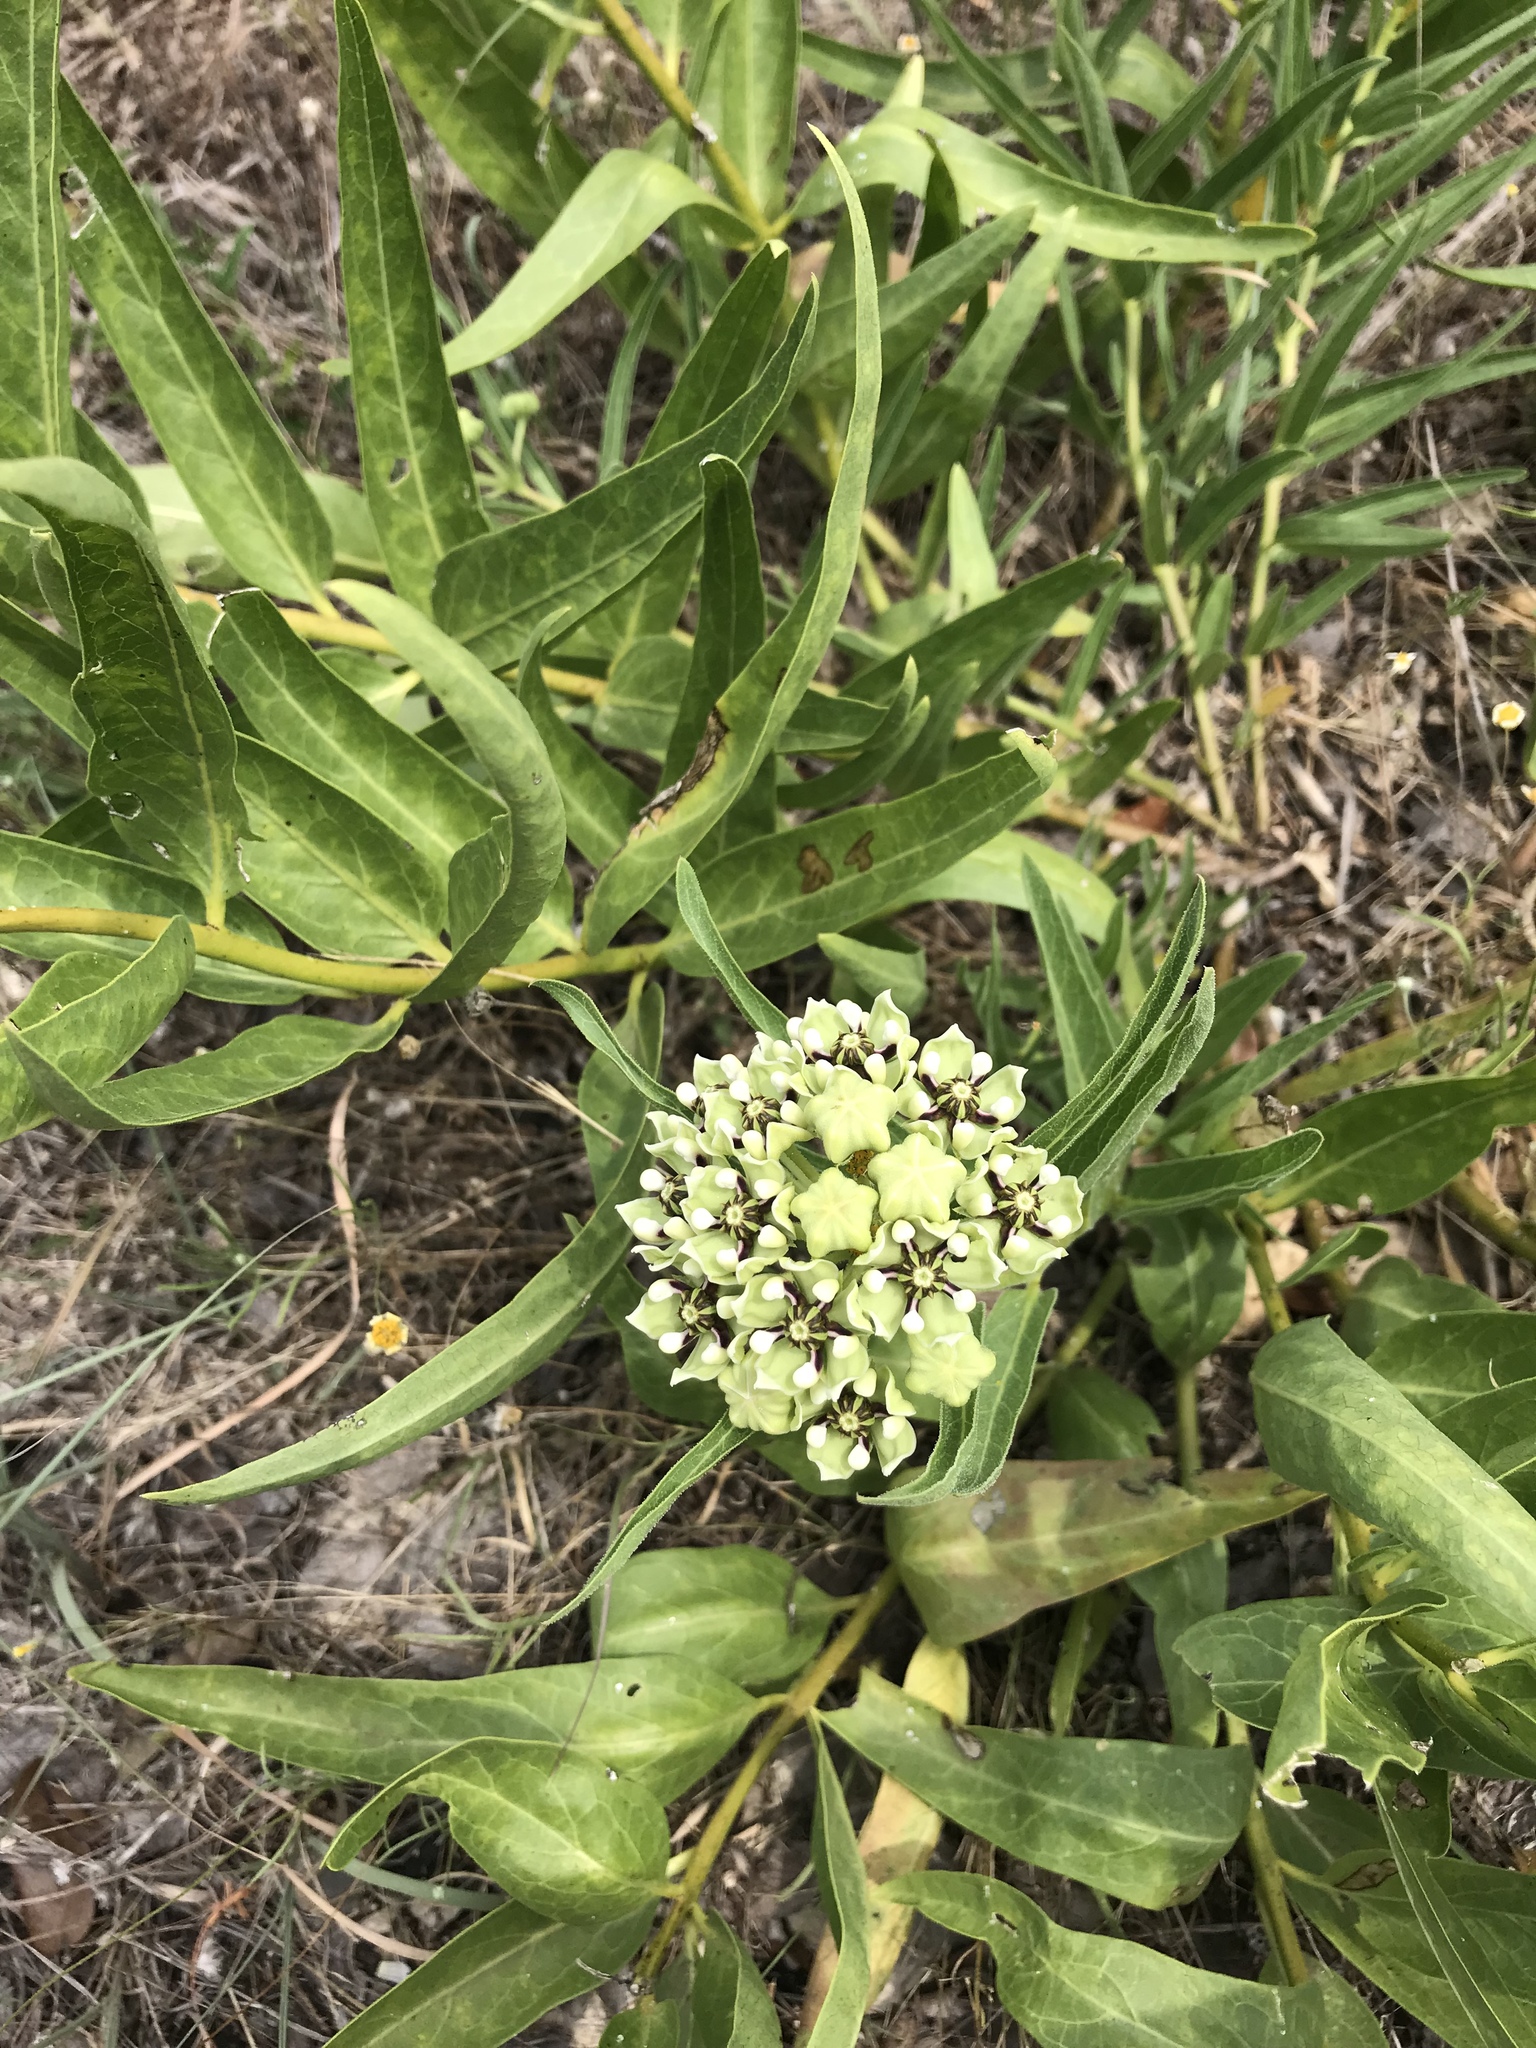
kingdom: Plantae
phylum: Tracheophyta
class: Magnoliopsida
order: Gentianales
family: Apocynaceae
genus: Asclepias
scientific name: Asclepias asperula
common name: Antelope horns
